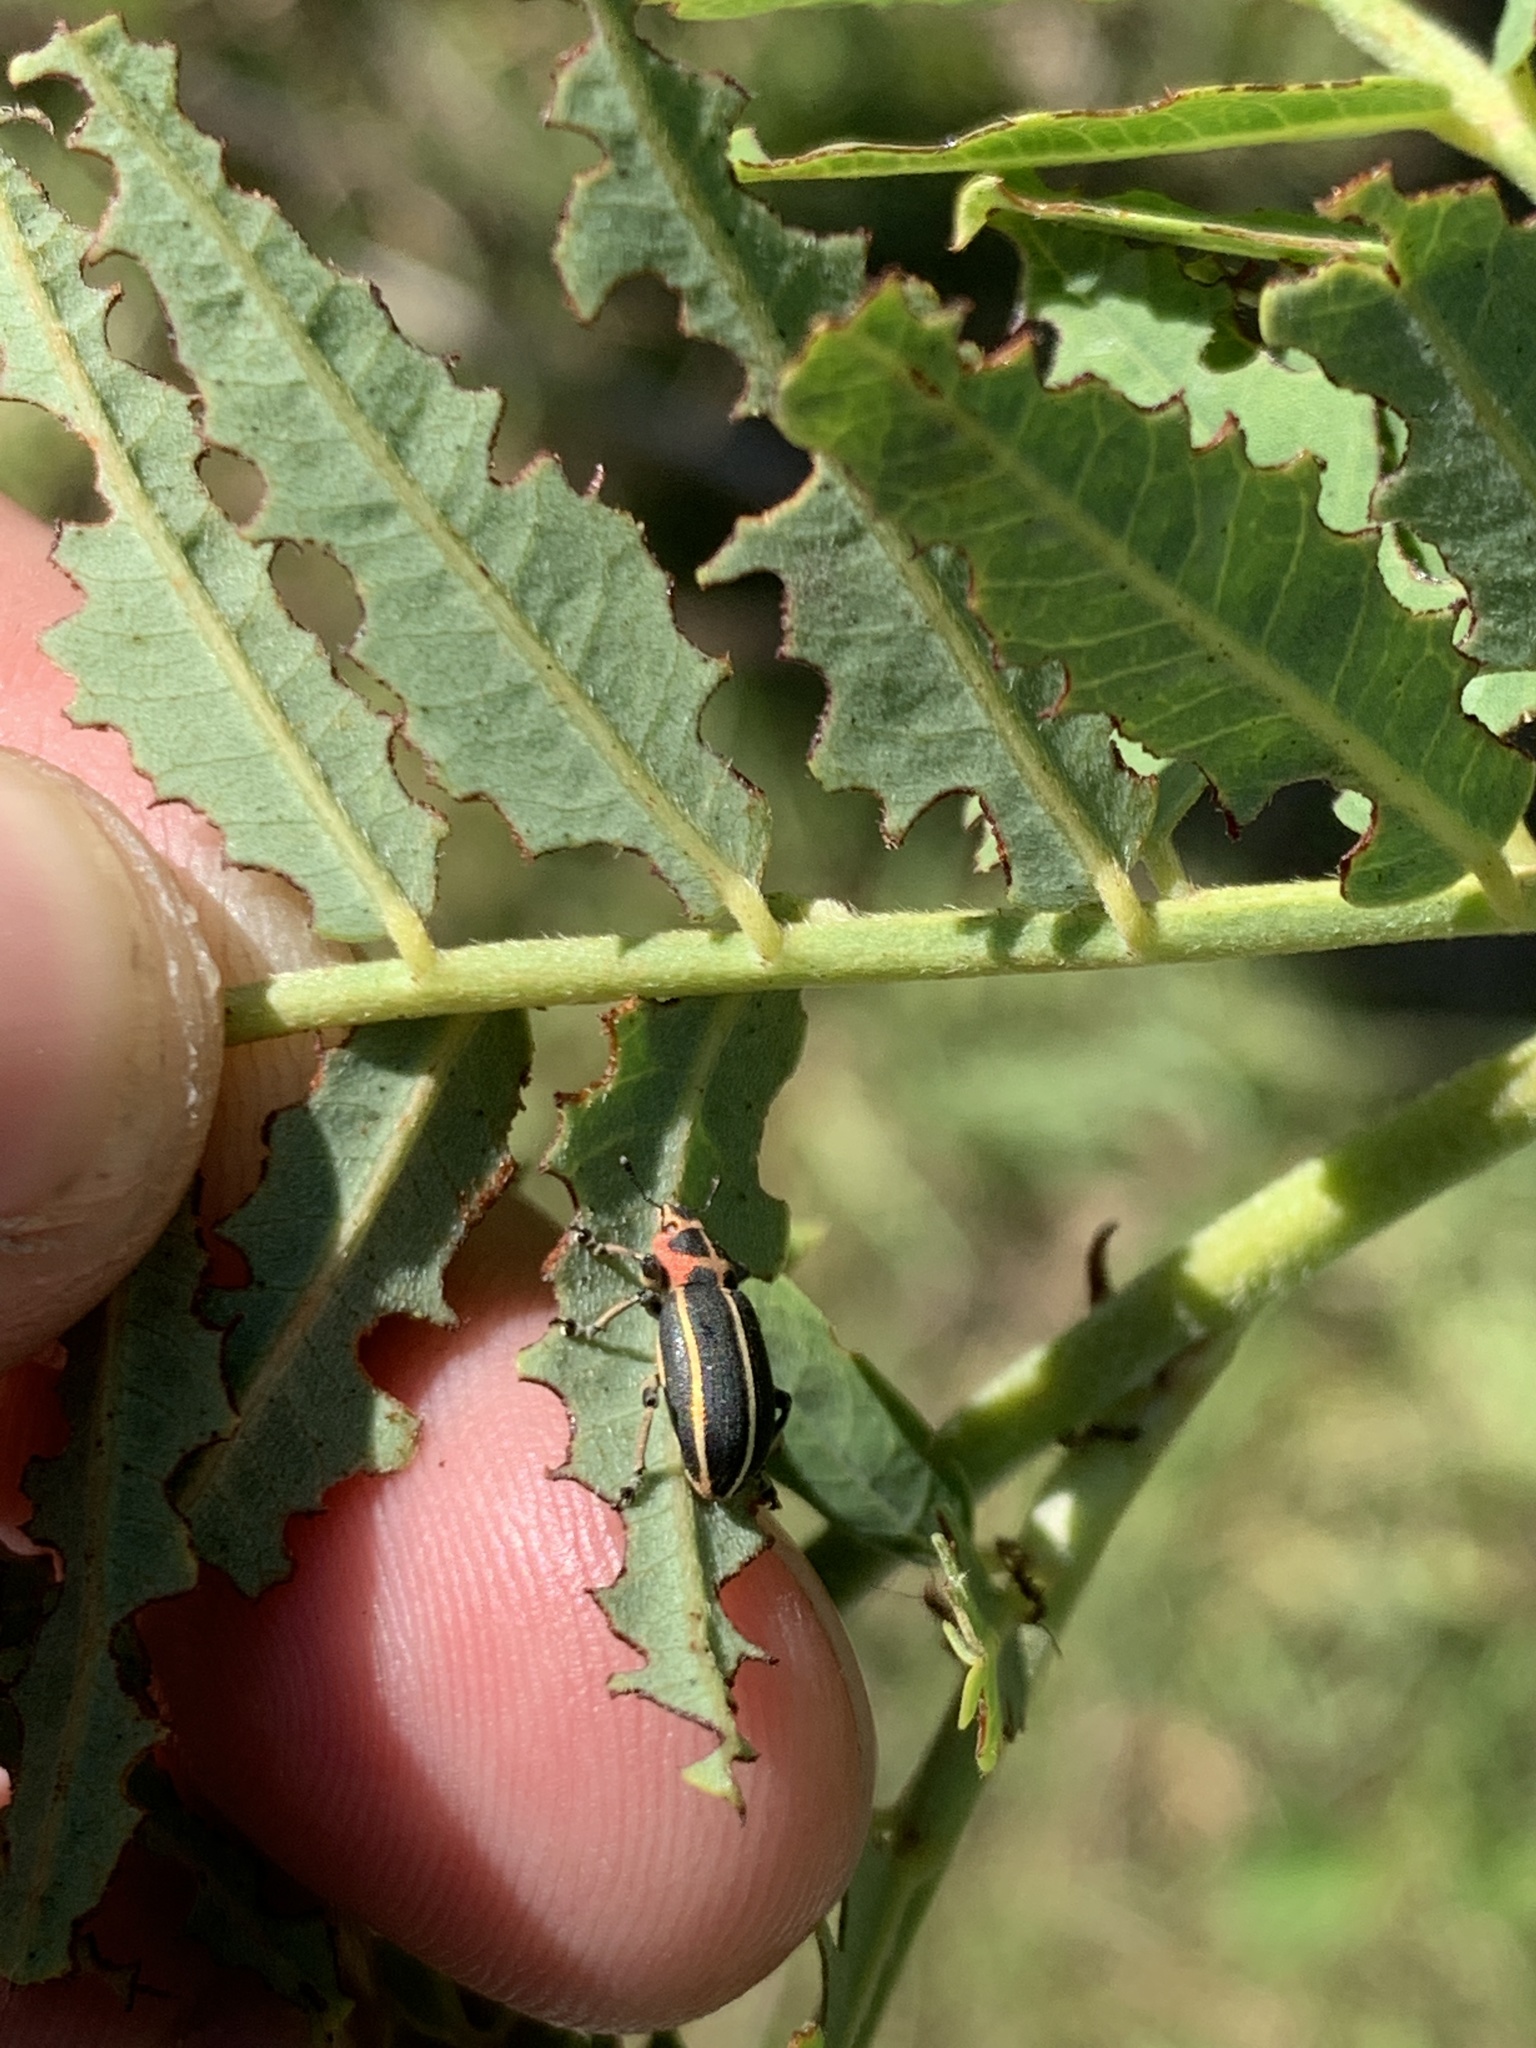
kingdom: Animalia
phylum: Arthropoda
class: Insecta
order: Coleoptera
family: Curculionidae
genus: Eudiagogus
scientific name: Eudiagogus episcopalis
